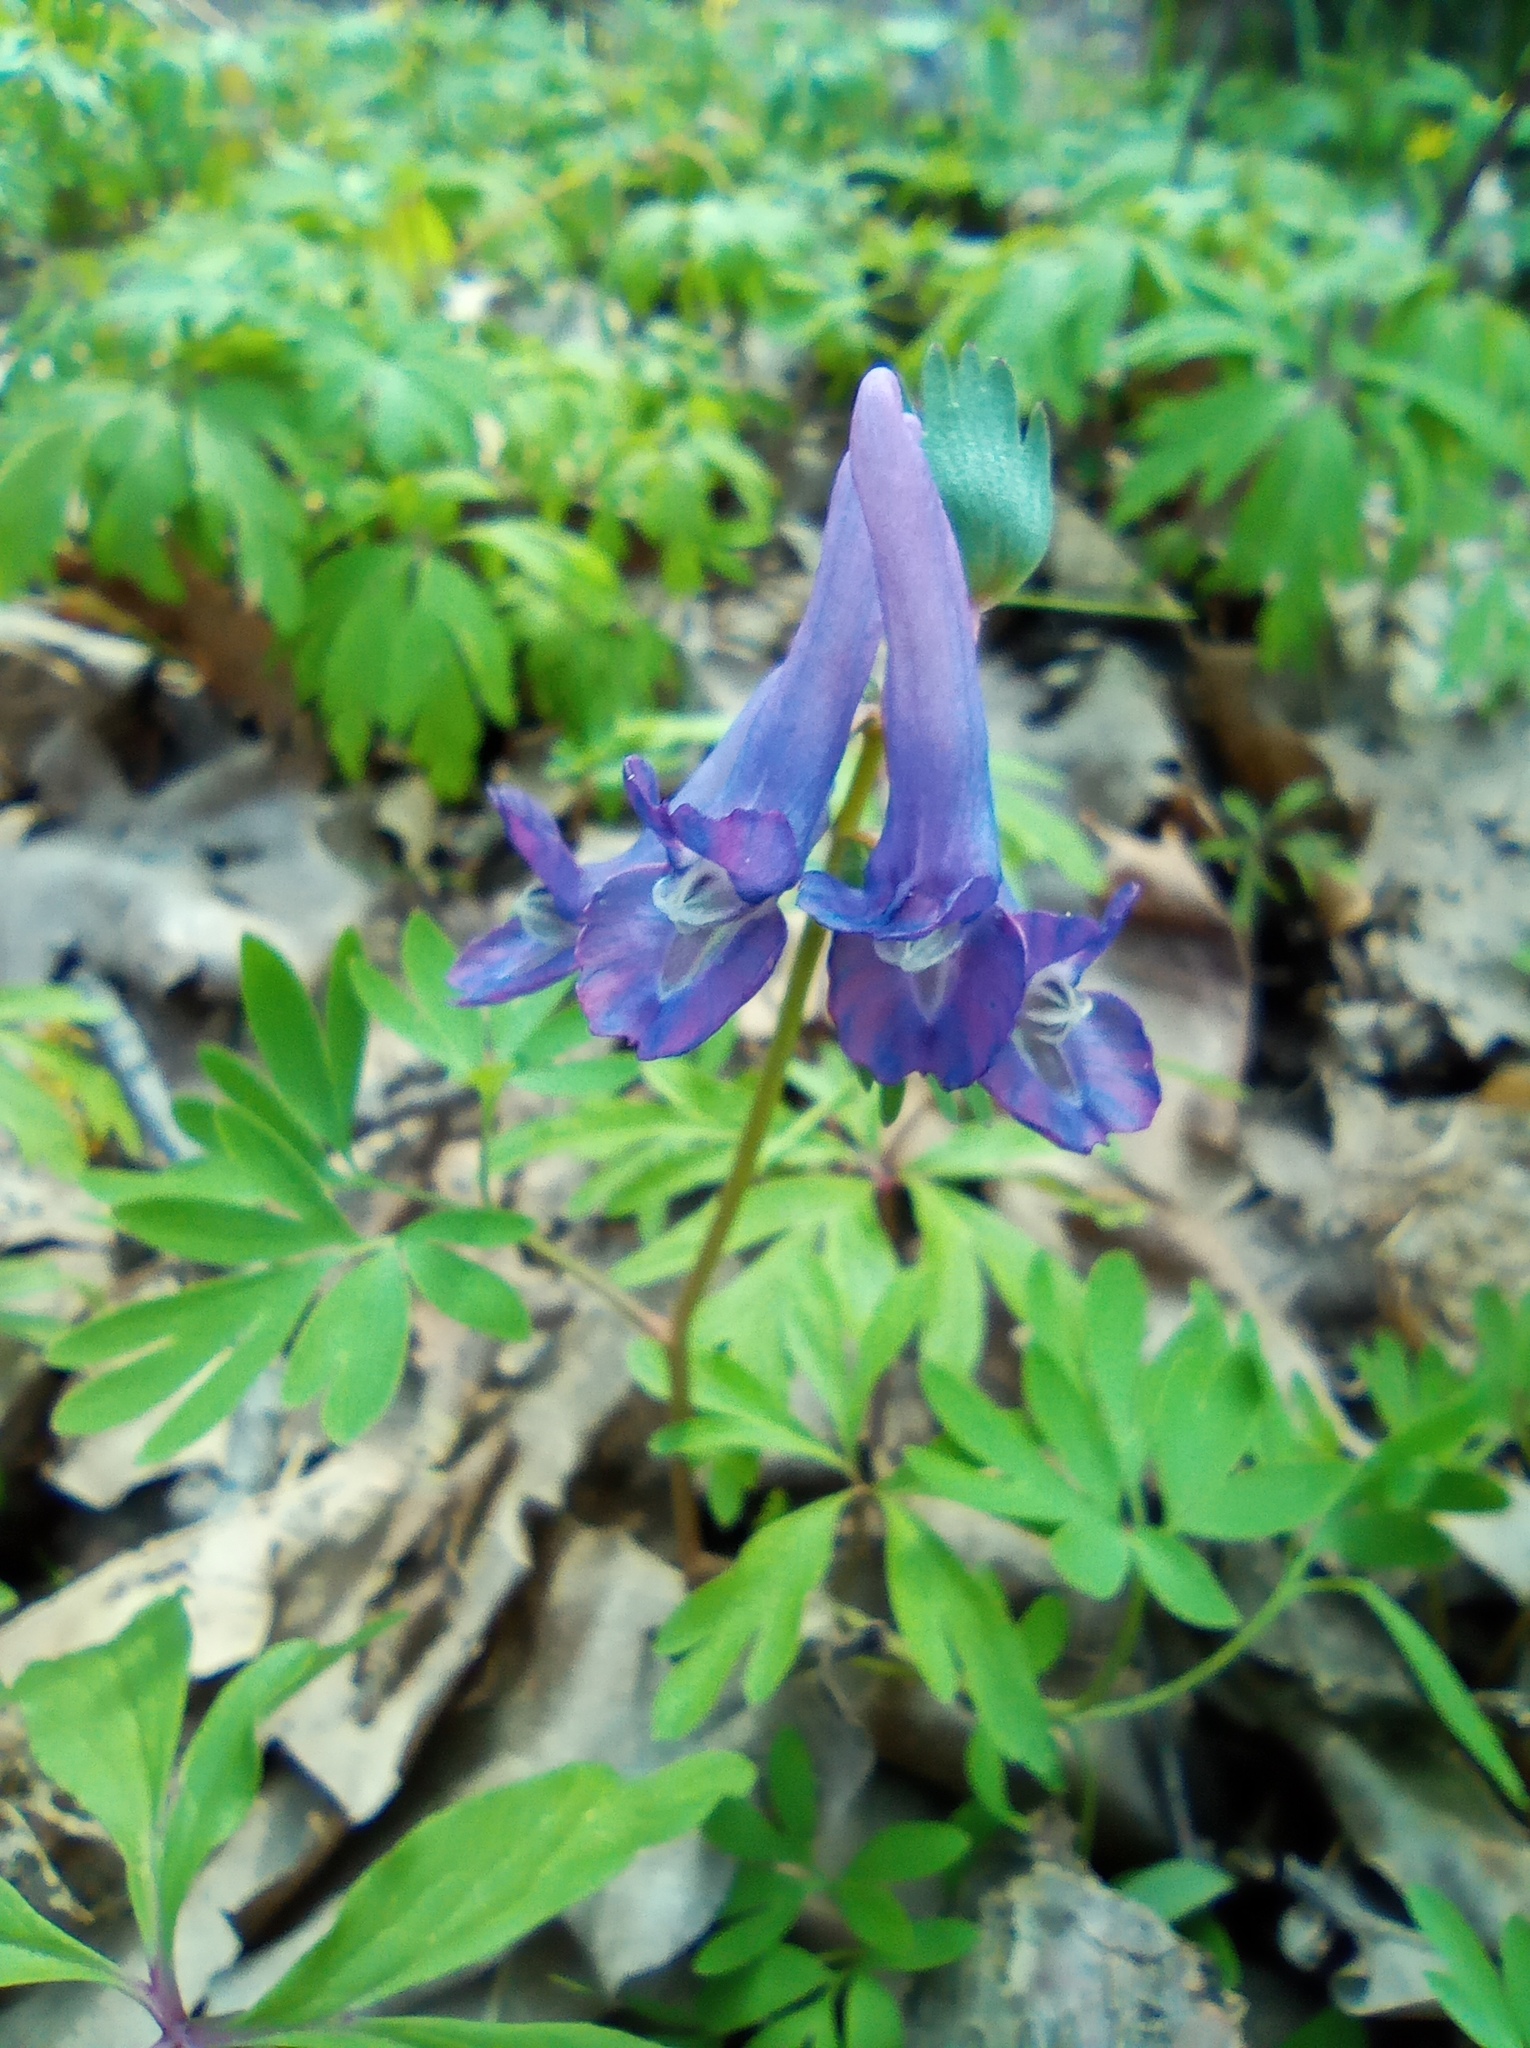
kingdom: Plantae
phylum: Tracheophyta
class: Magnoliopsida
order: Ranunculales
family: Papaveraceae
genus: Corydalis
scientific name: Corydalis solida
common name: Bird-in-a-bush
